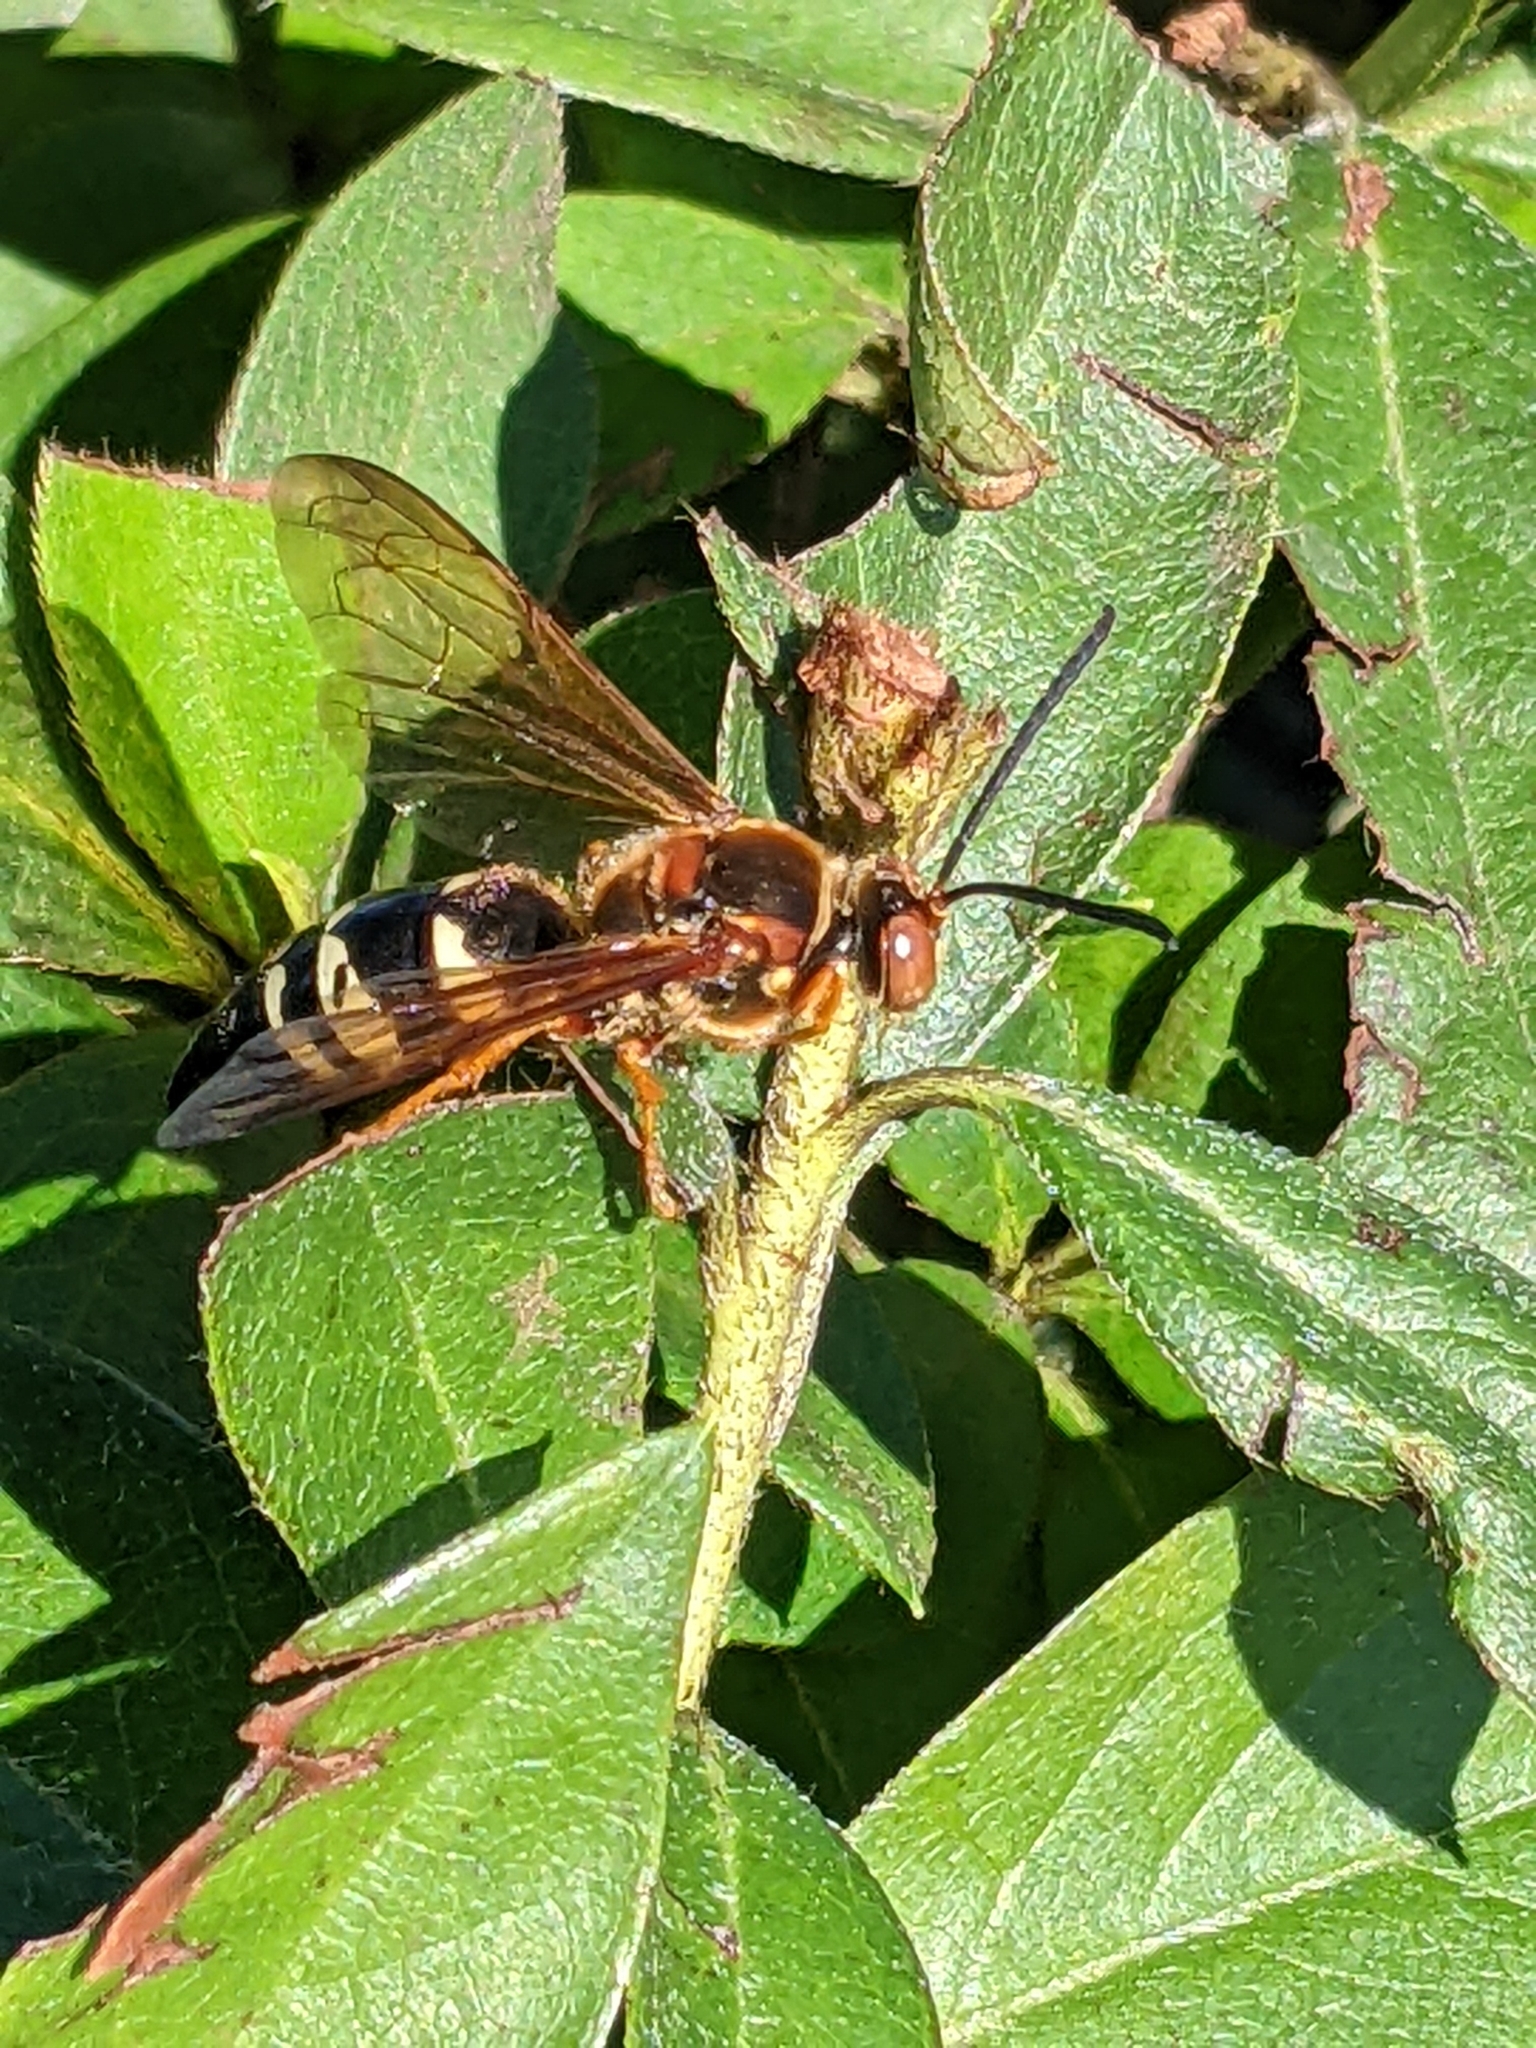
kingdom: Animalia
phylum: Arthropoda
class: Insecta
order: Hymenoptera
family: Crabronidae
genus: Sphecius
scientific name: Sphecius speciosus
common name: Cicada killer
